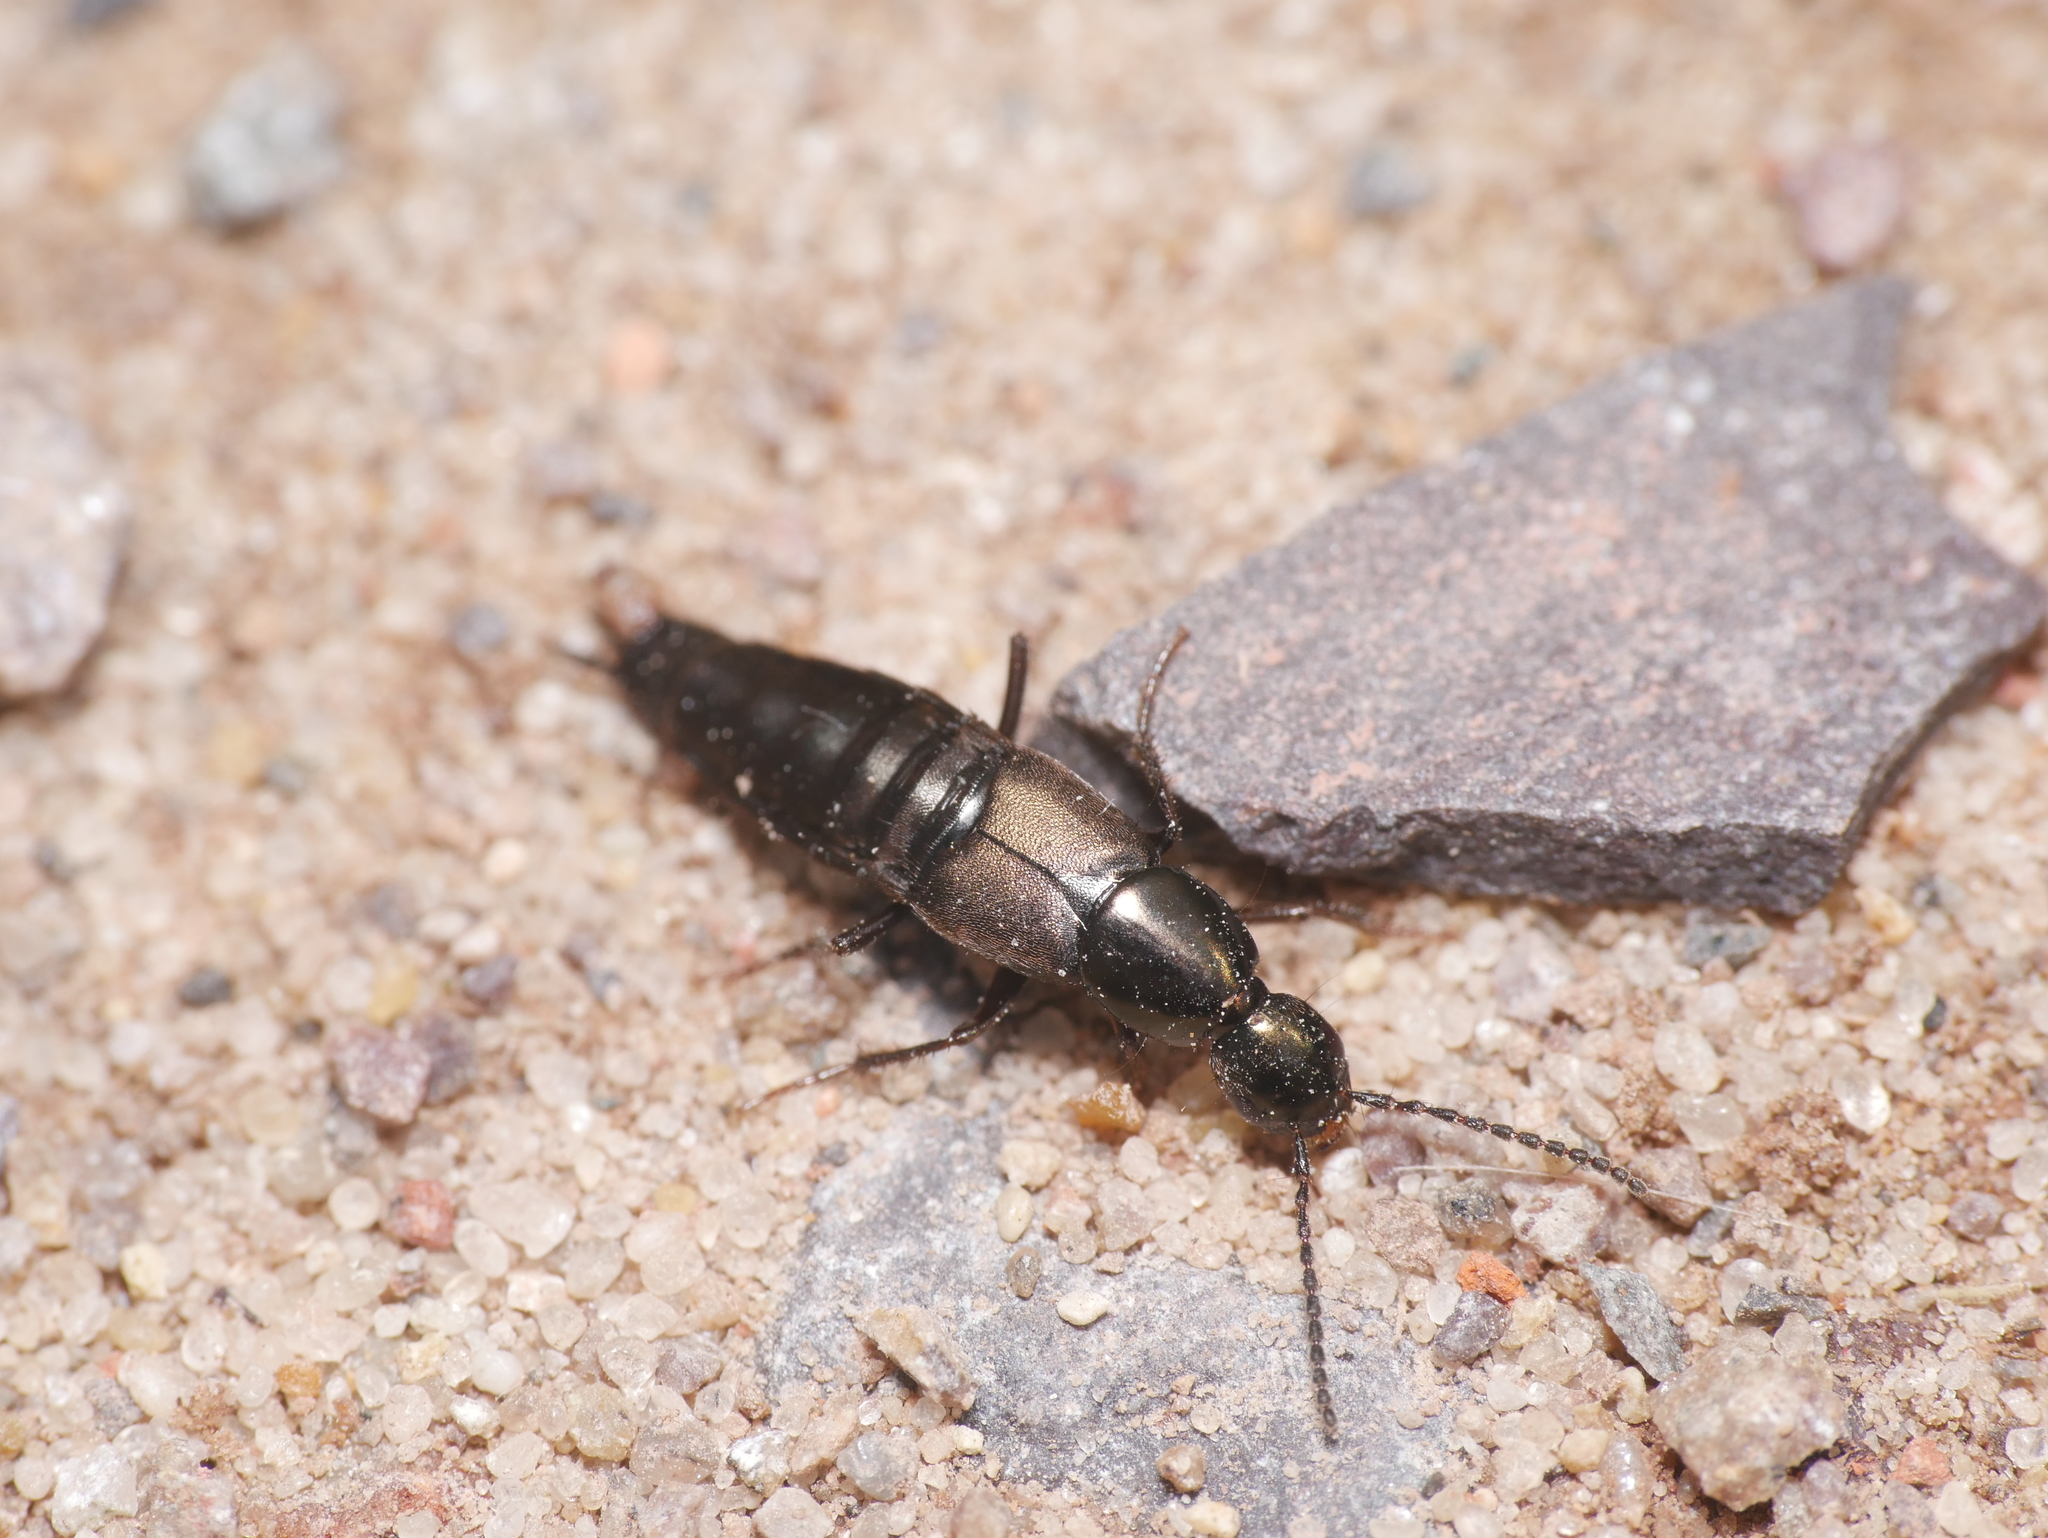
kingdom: Animalia
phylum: Arthropoda
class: Insecta
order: Coleoptera
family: Staphylinidae
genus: Philonthus
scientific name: Philonthus decorus
